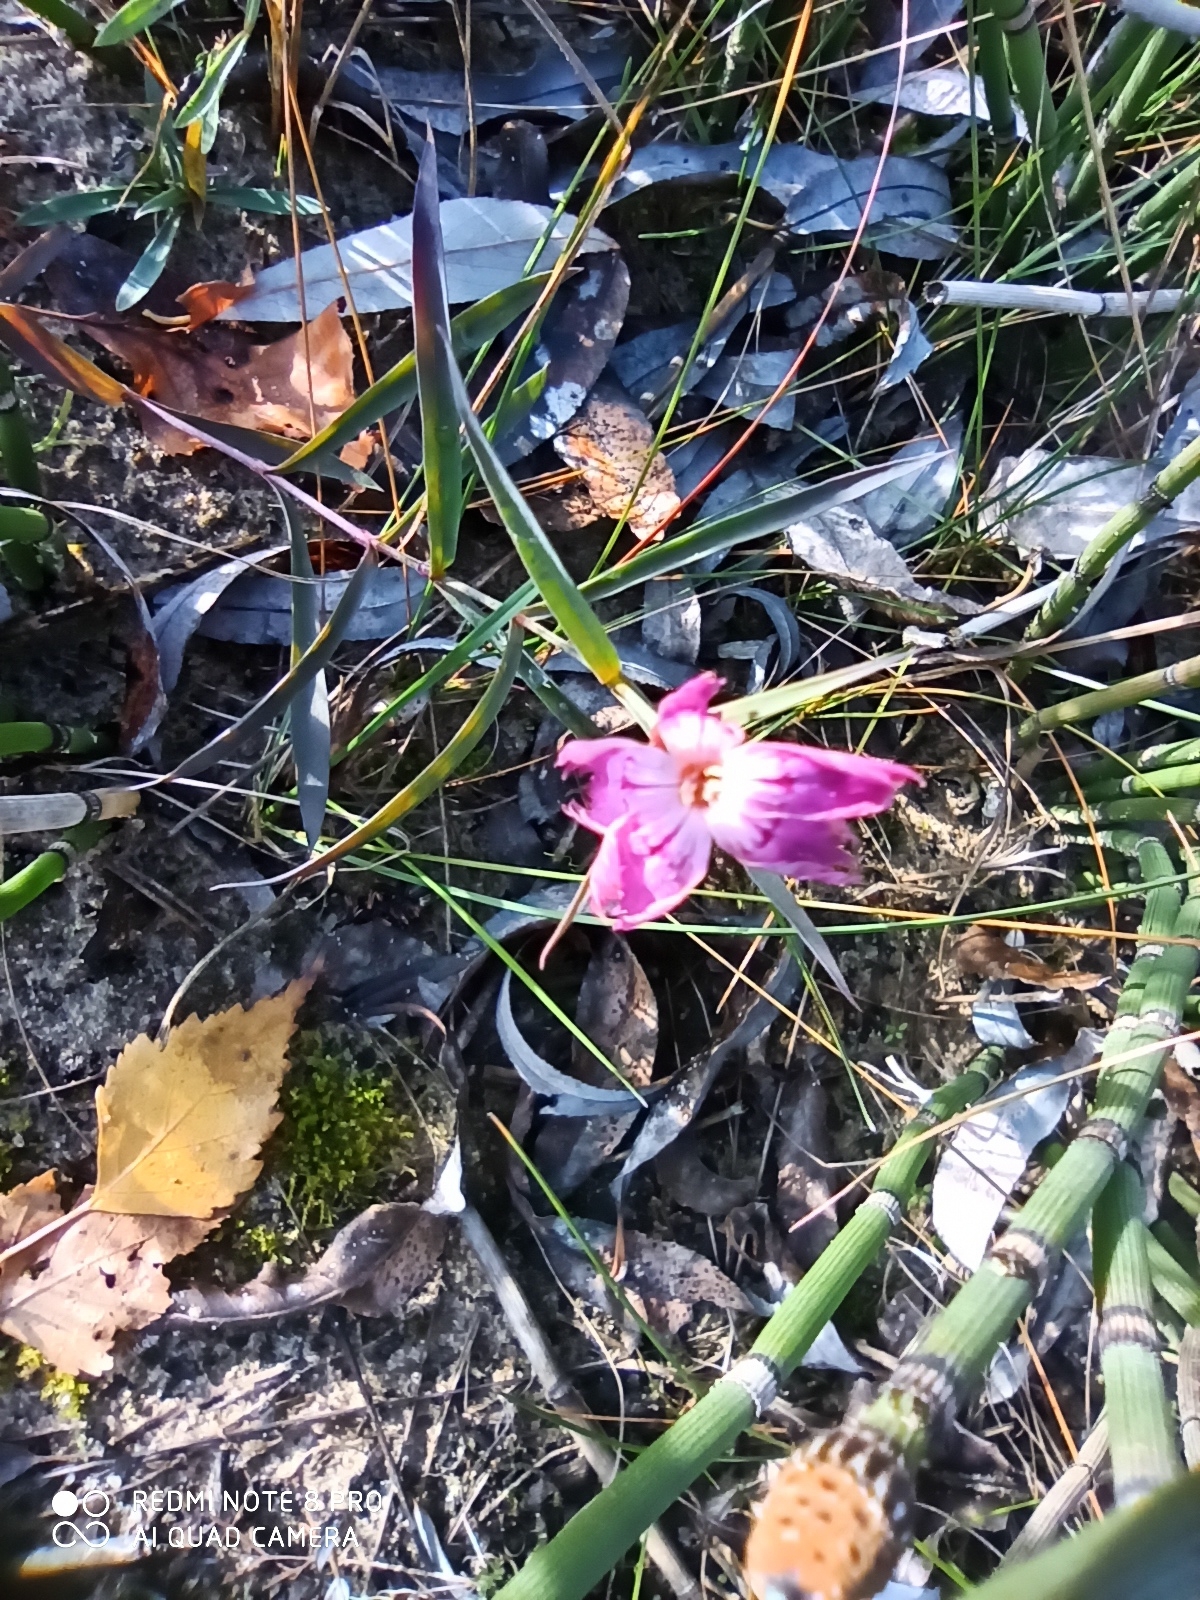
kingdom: Plantae
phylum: Tracheophyta
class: Magnoliopsida
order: Caryophyllales
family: Caryophyllaceae
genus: Dianthus
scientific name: Dianthus chinensis
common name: Rainbow pink
